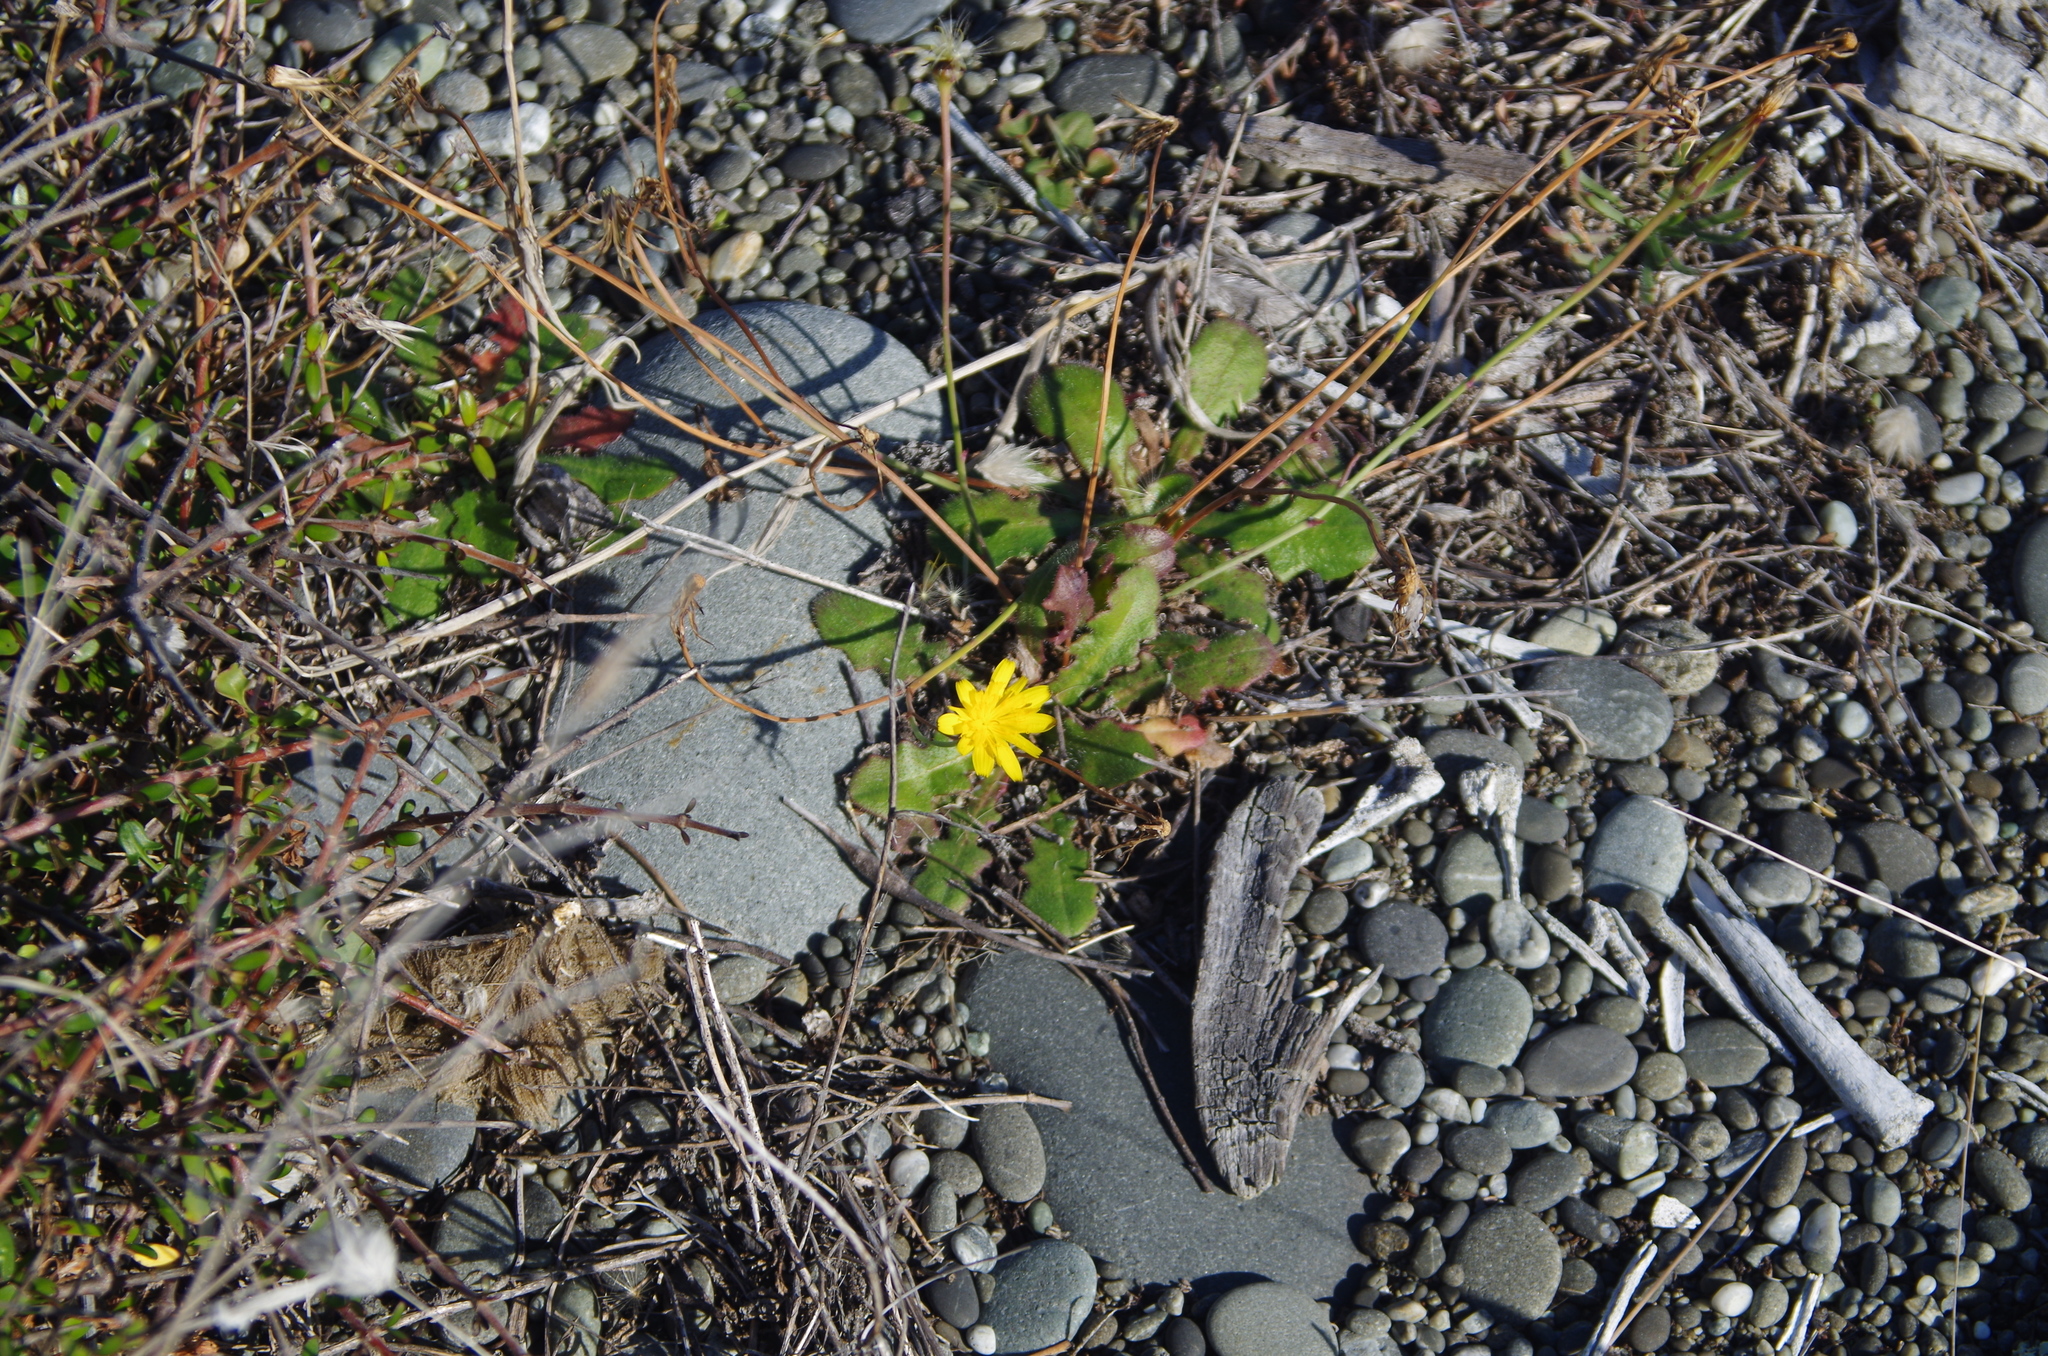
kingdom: Plantae
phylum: Tracheophyta
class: Magnoliopsida
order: Asterales
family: Asteraceae
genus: Hypochaeris
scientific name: Hypochaeris radicata
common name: Flatweed
